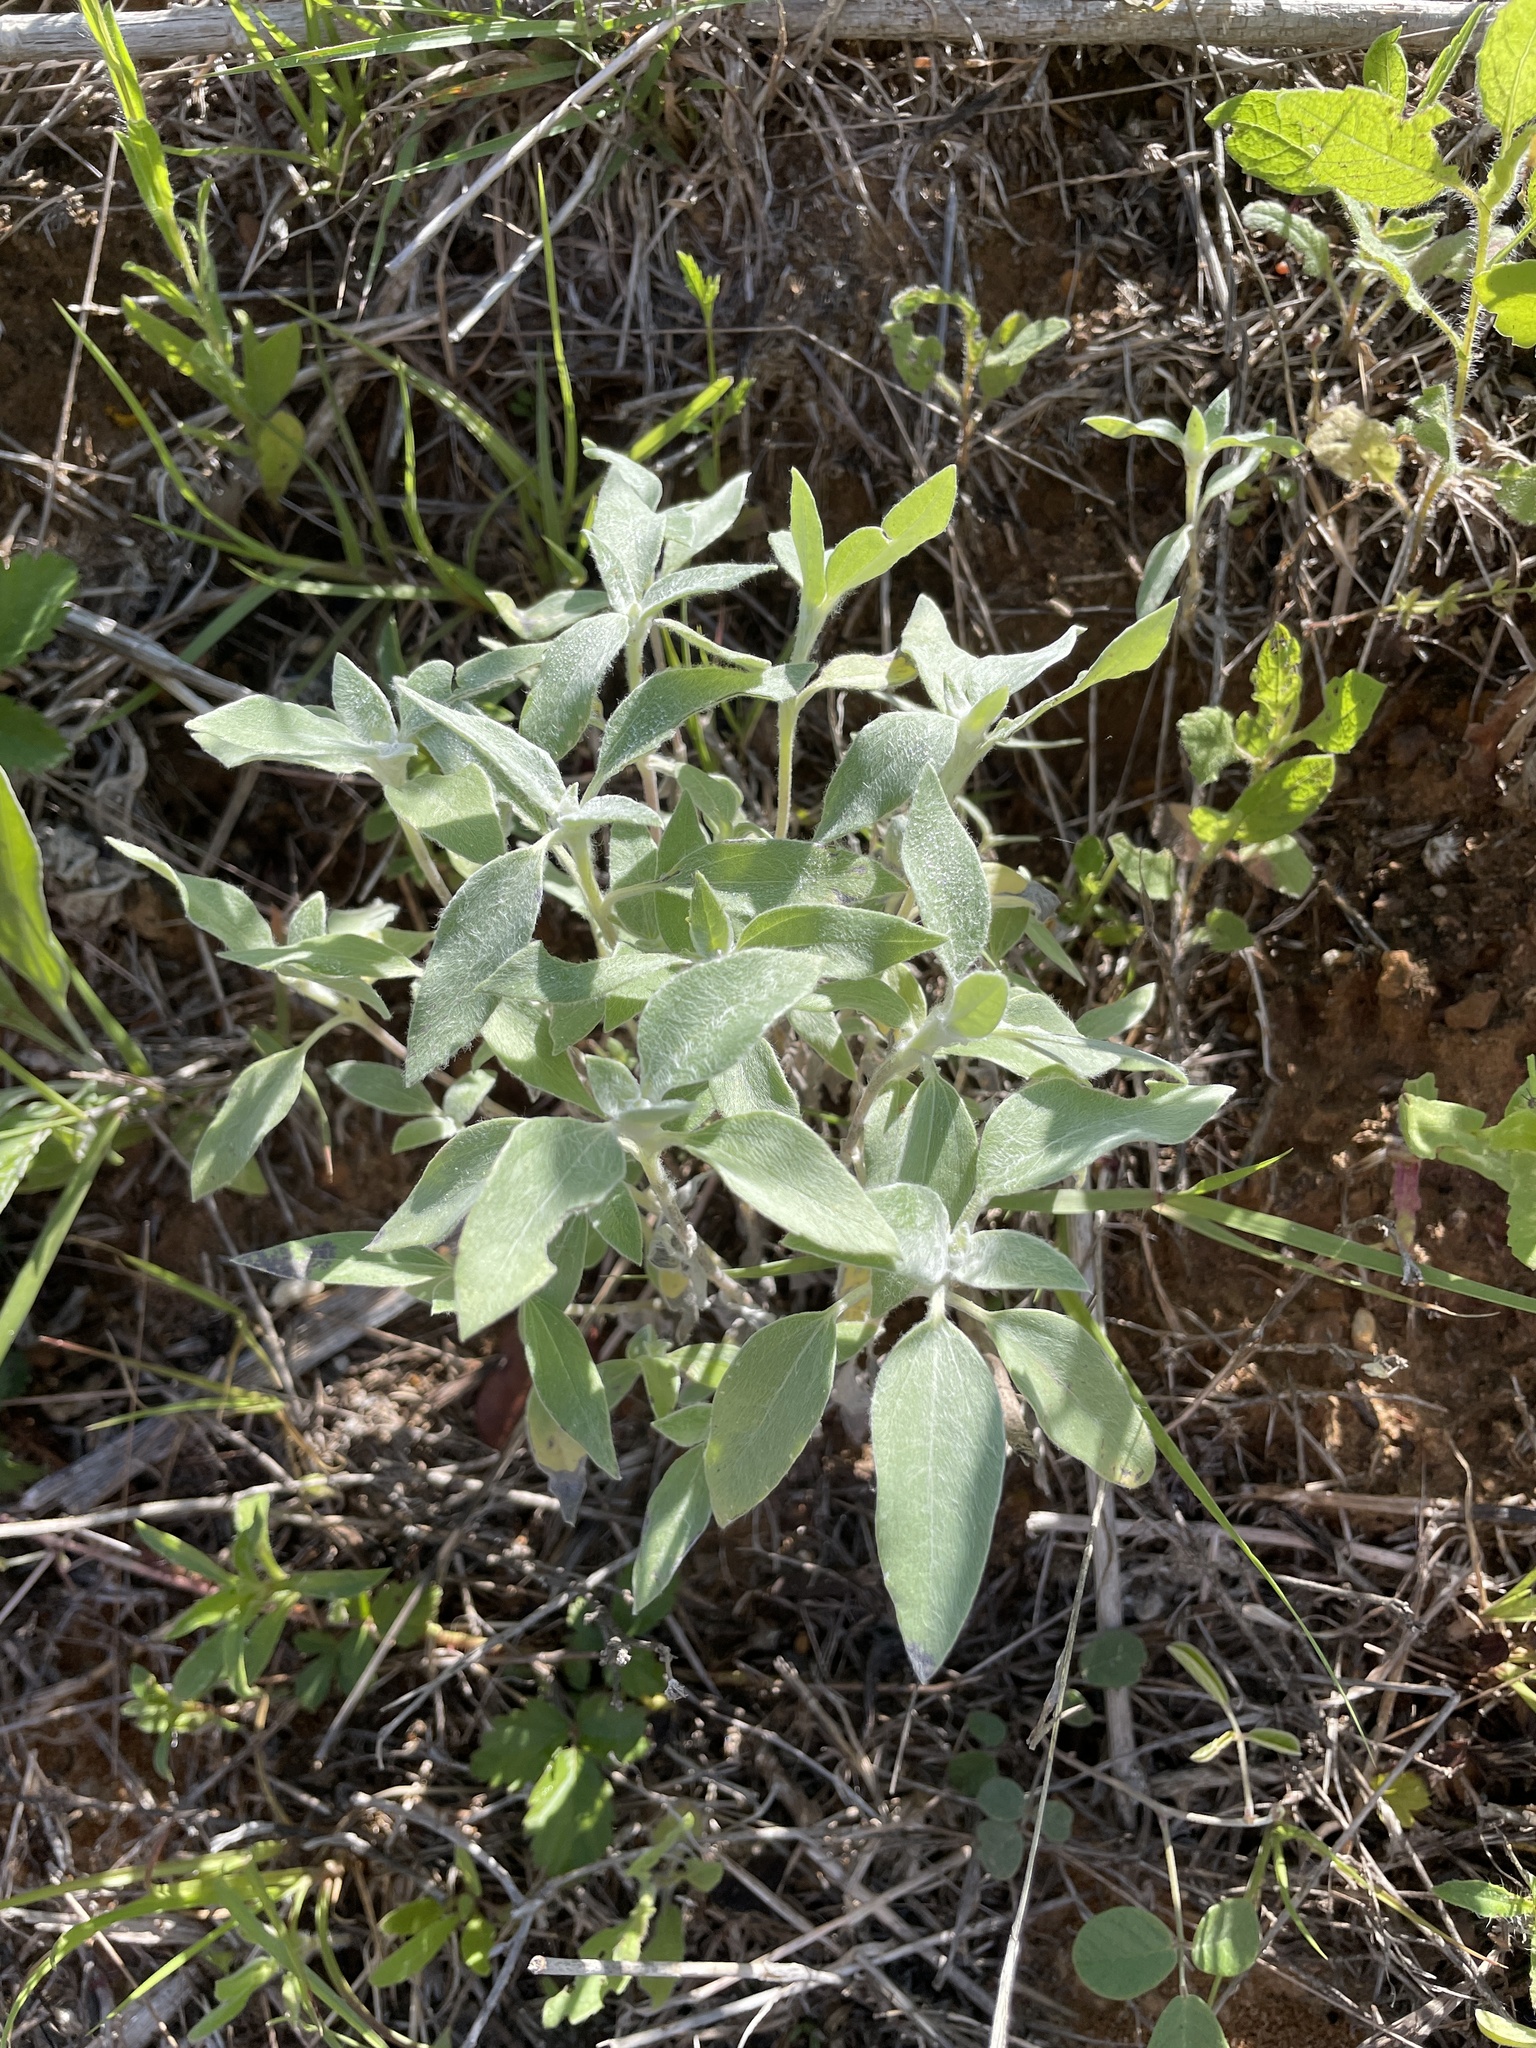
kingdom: Plantae
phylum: Tracheophyta
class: Magnoliopsida
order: Asterales
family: Asteraceae
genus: Helianthus
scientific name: Helianthus argophyllus
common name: Silverleaf sunflower
